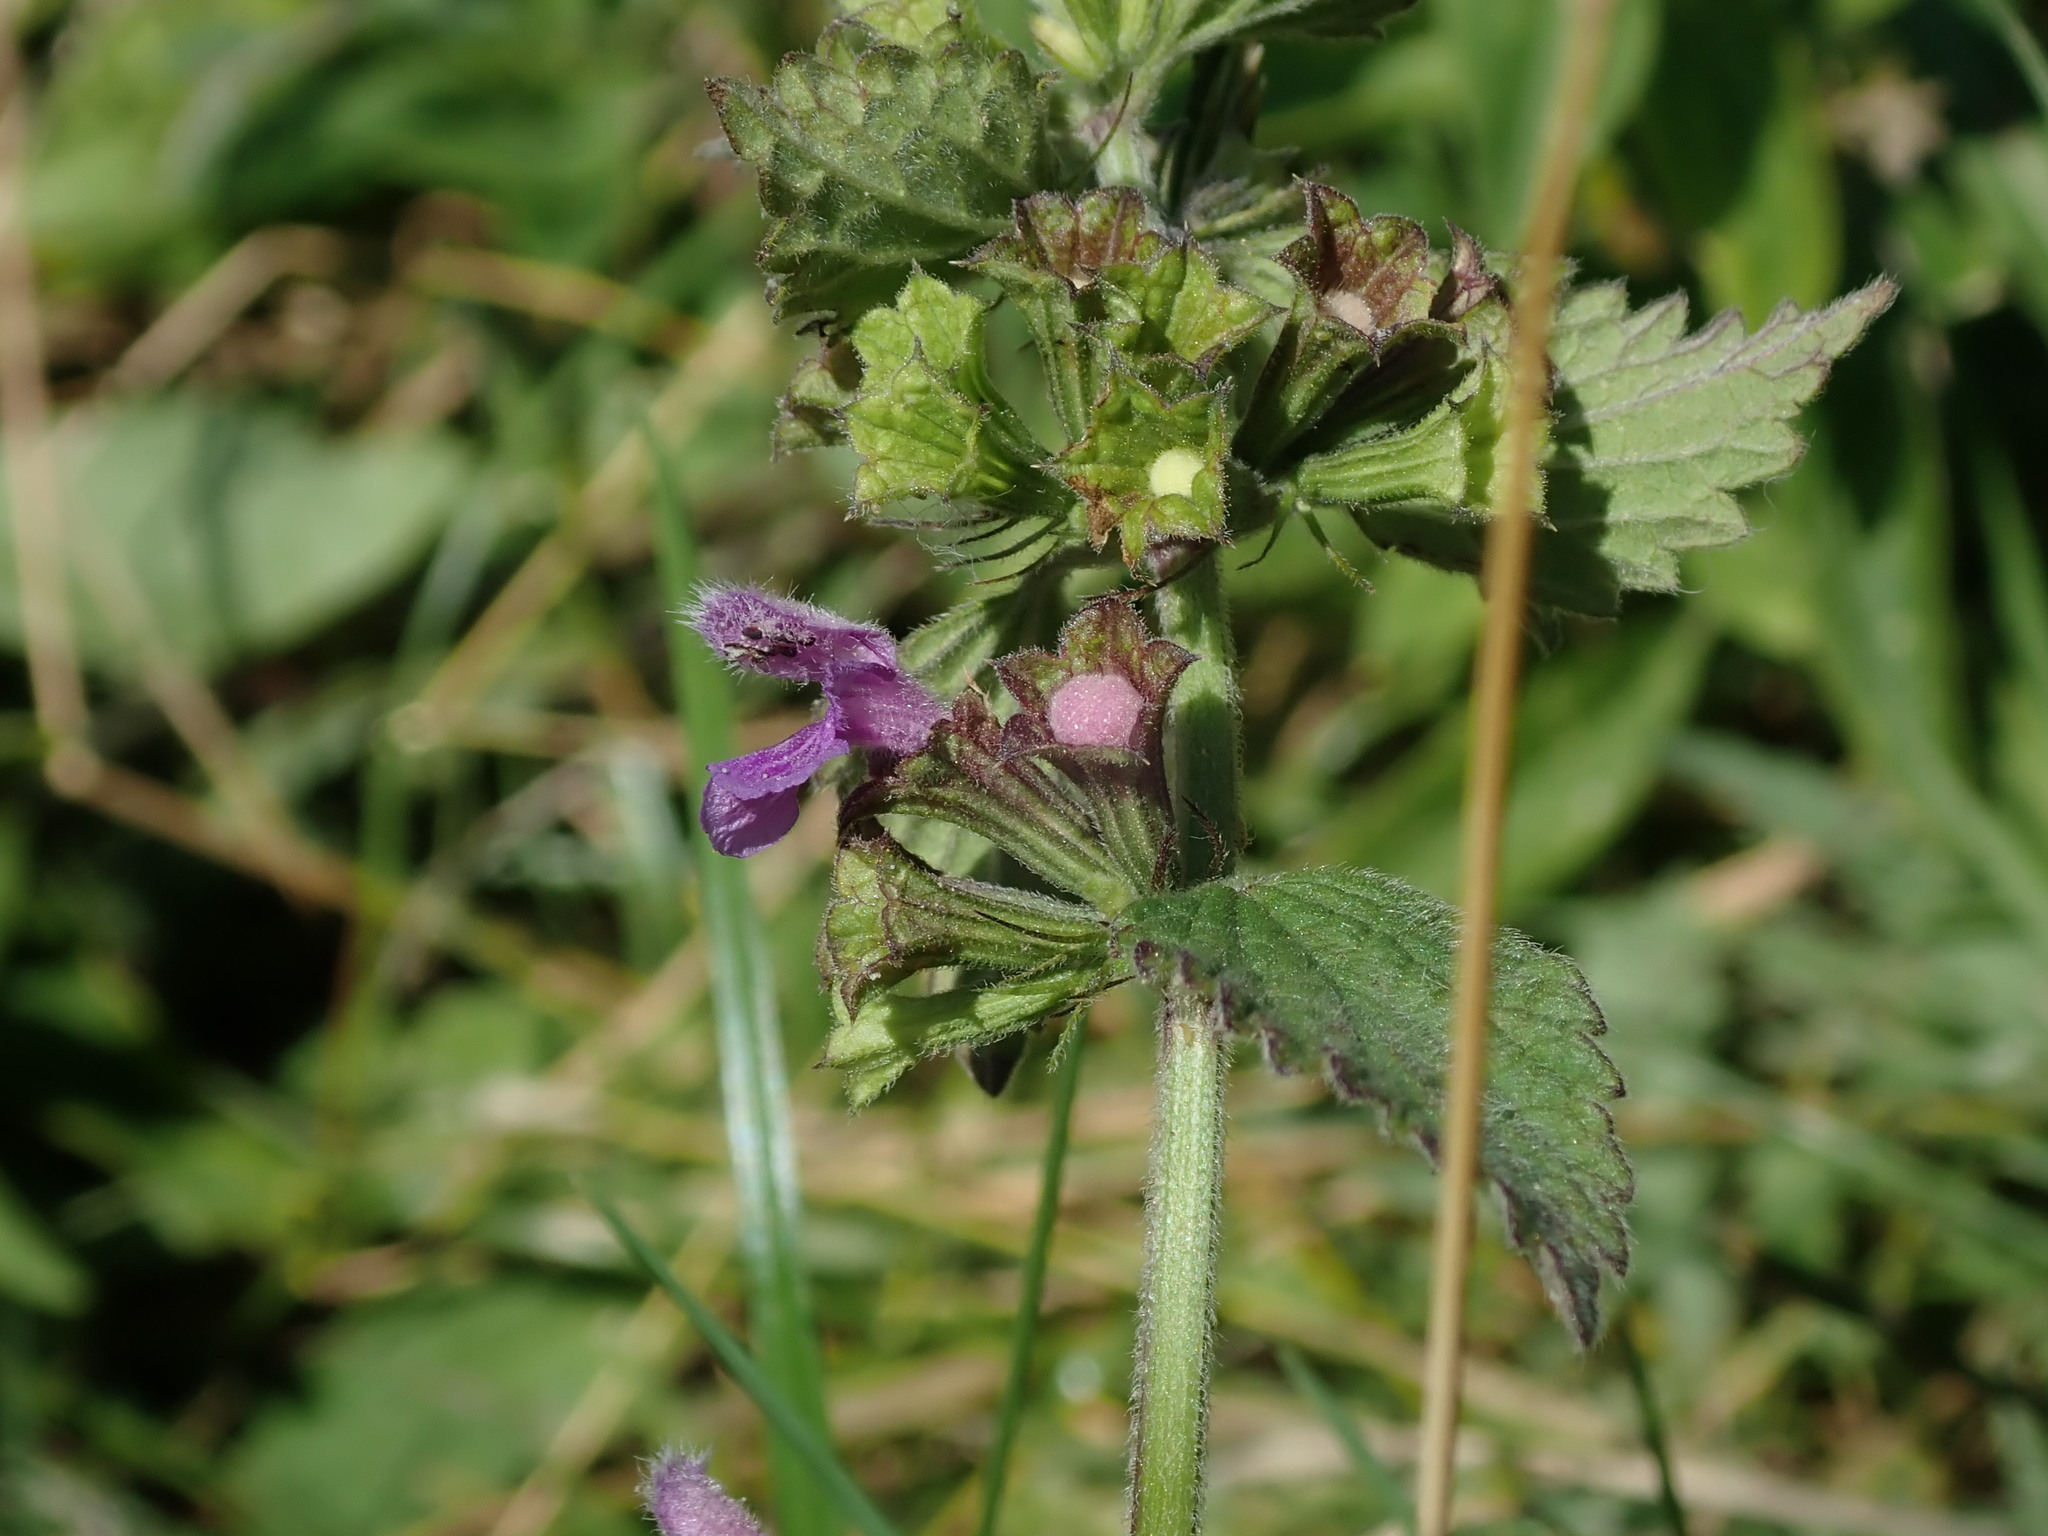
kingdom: Plantae
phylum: Tracheophyta
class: Magnoliopsida
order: Lamiales
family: Lamiaceae
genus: Ballota
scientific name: Ballota nigra
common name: Black horehound
